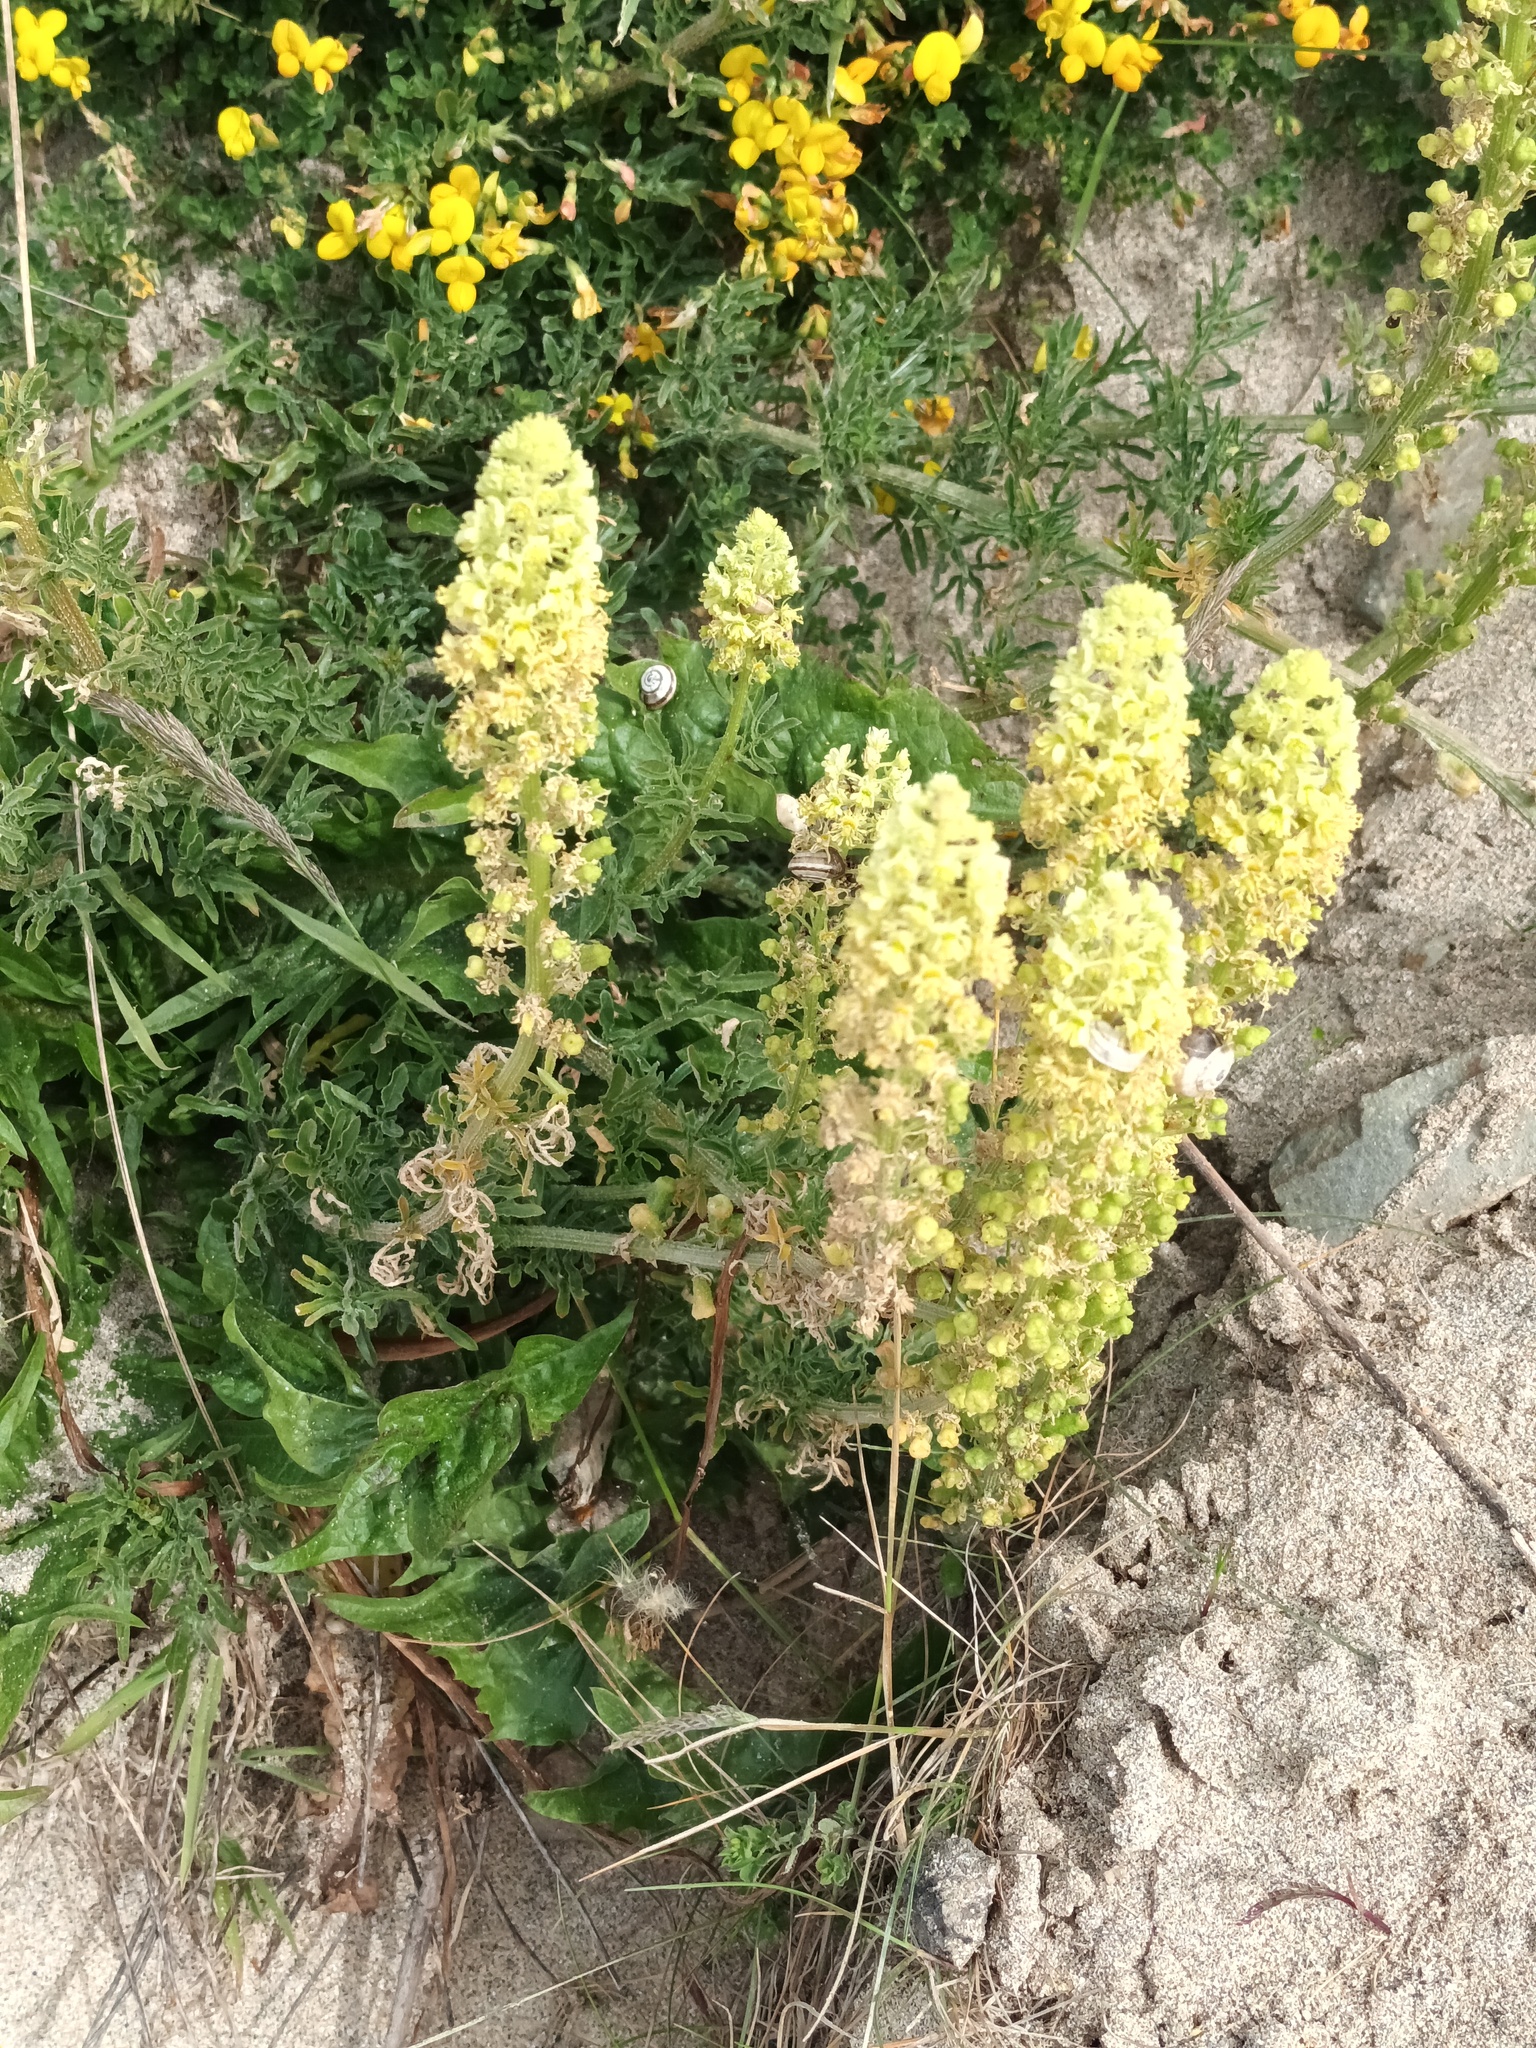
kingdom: Plantae
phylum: Tracheophyta
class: Magnoliopsida
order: Brassicales
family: Resedaceae
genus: Reseda
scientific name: Reseda lutea
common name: Wild mignonette
